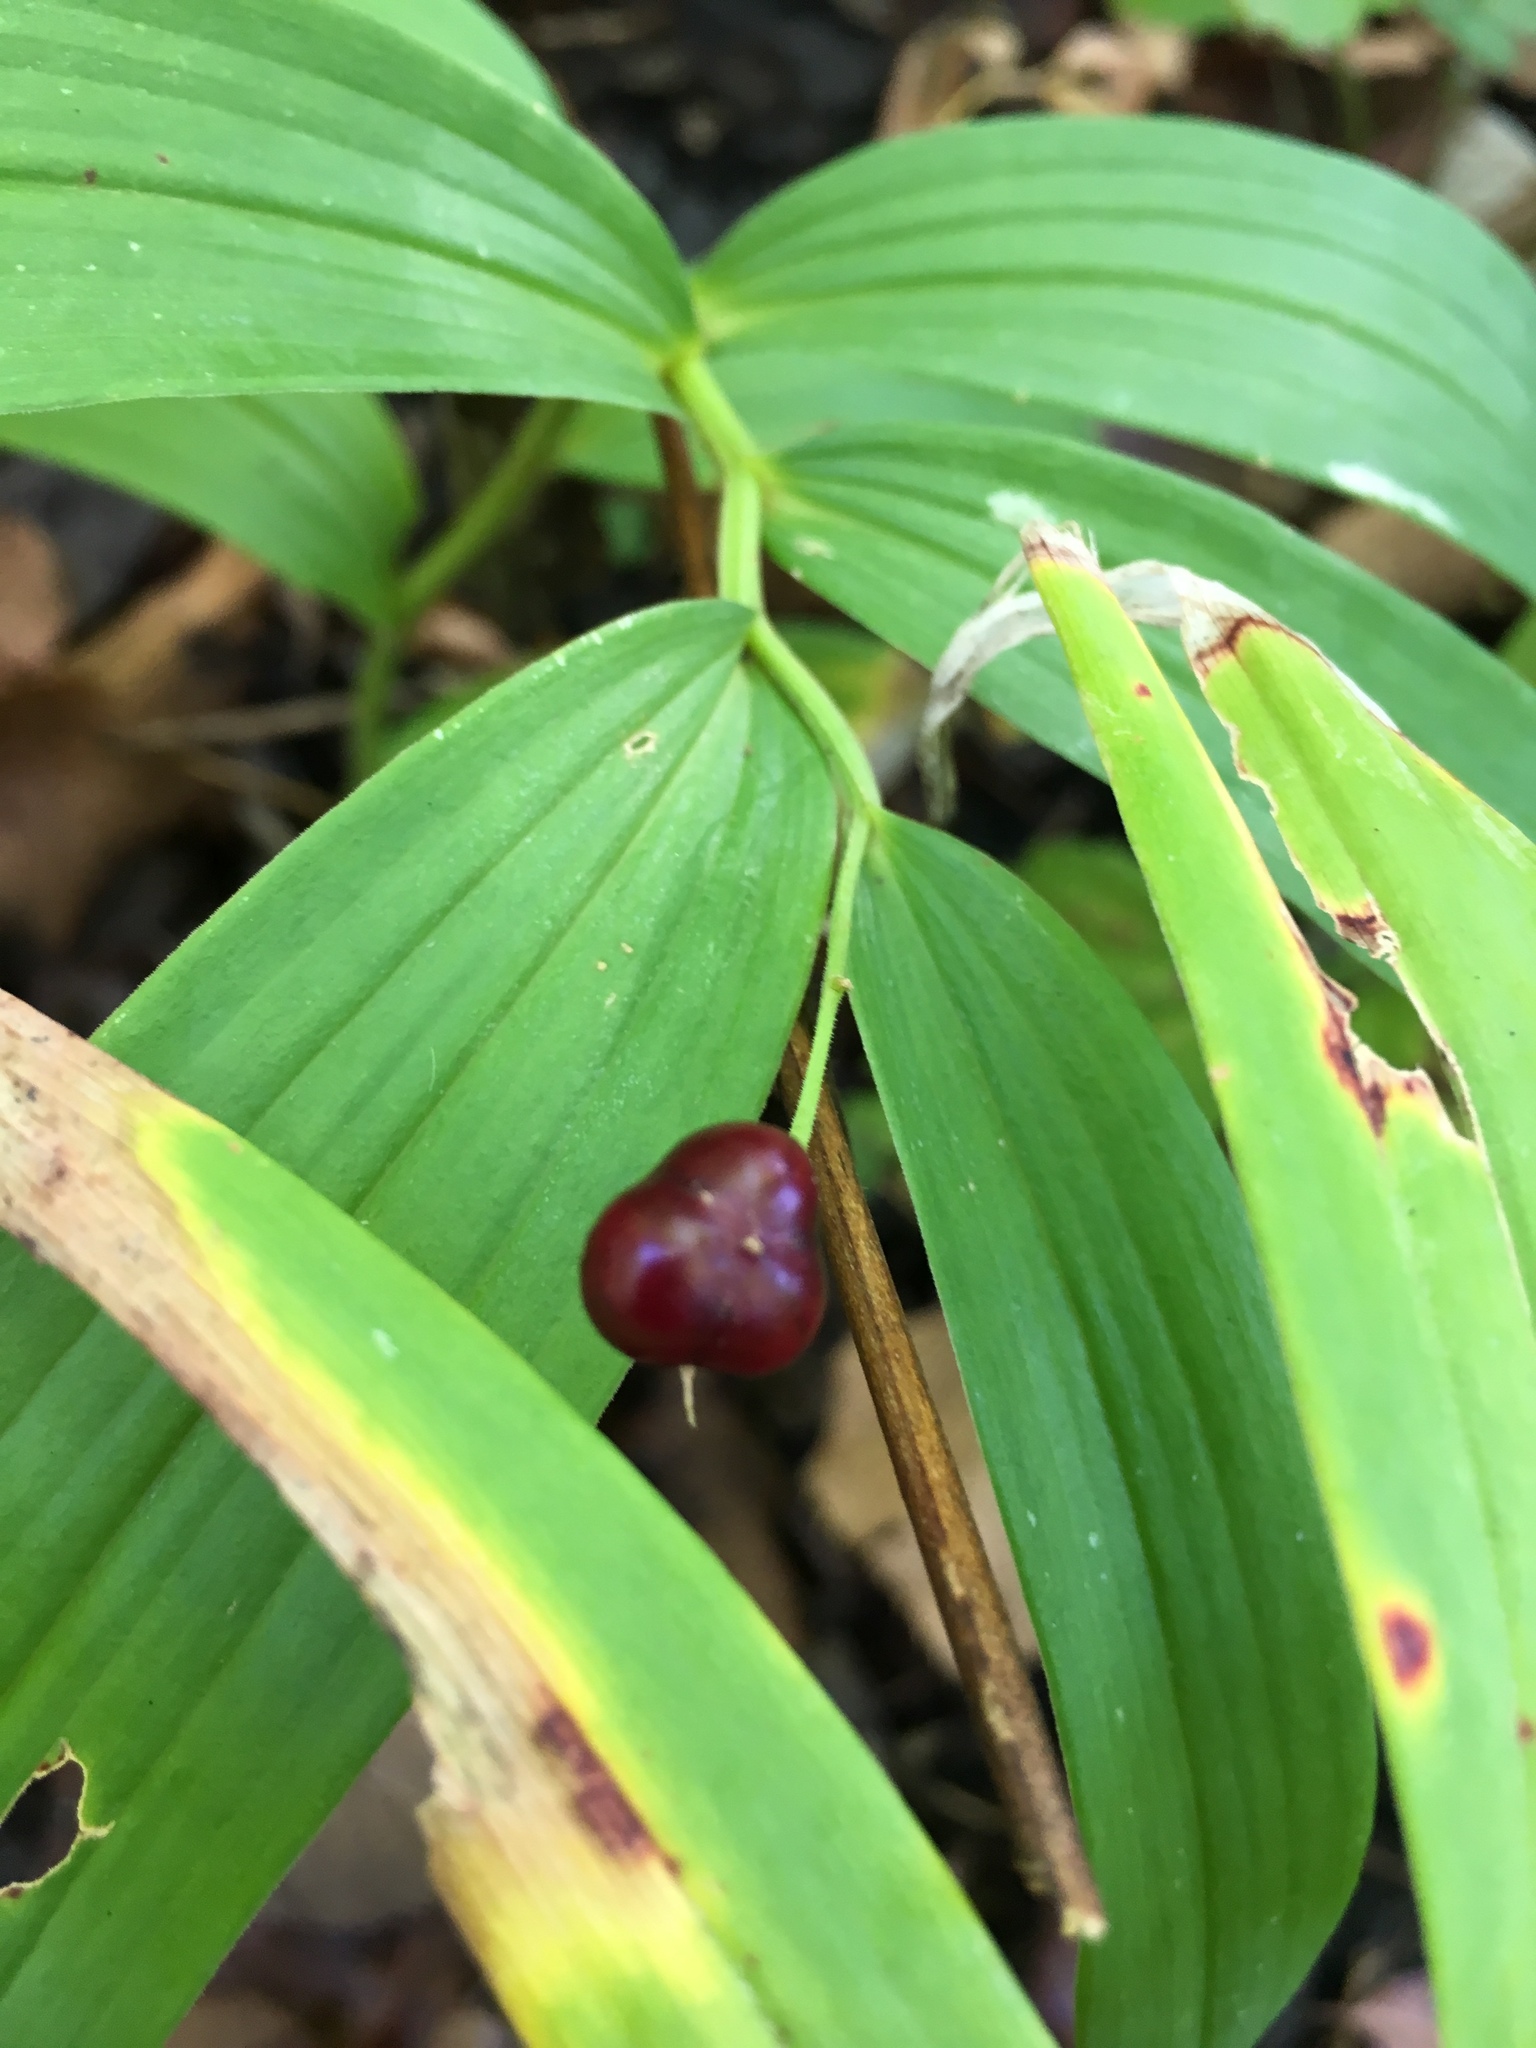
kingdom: Plantae
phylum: Tracheophyta
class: Liliopsida
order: Asparagales
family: Asparagaceae
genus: Maianthemum
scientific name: Maianthemum stellatum
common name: Little false solomon's seal
